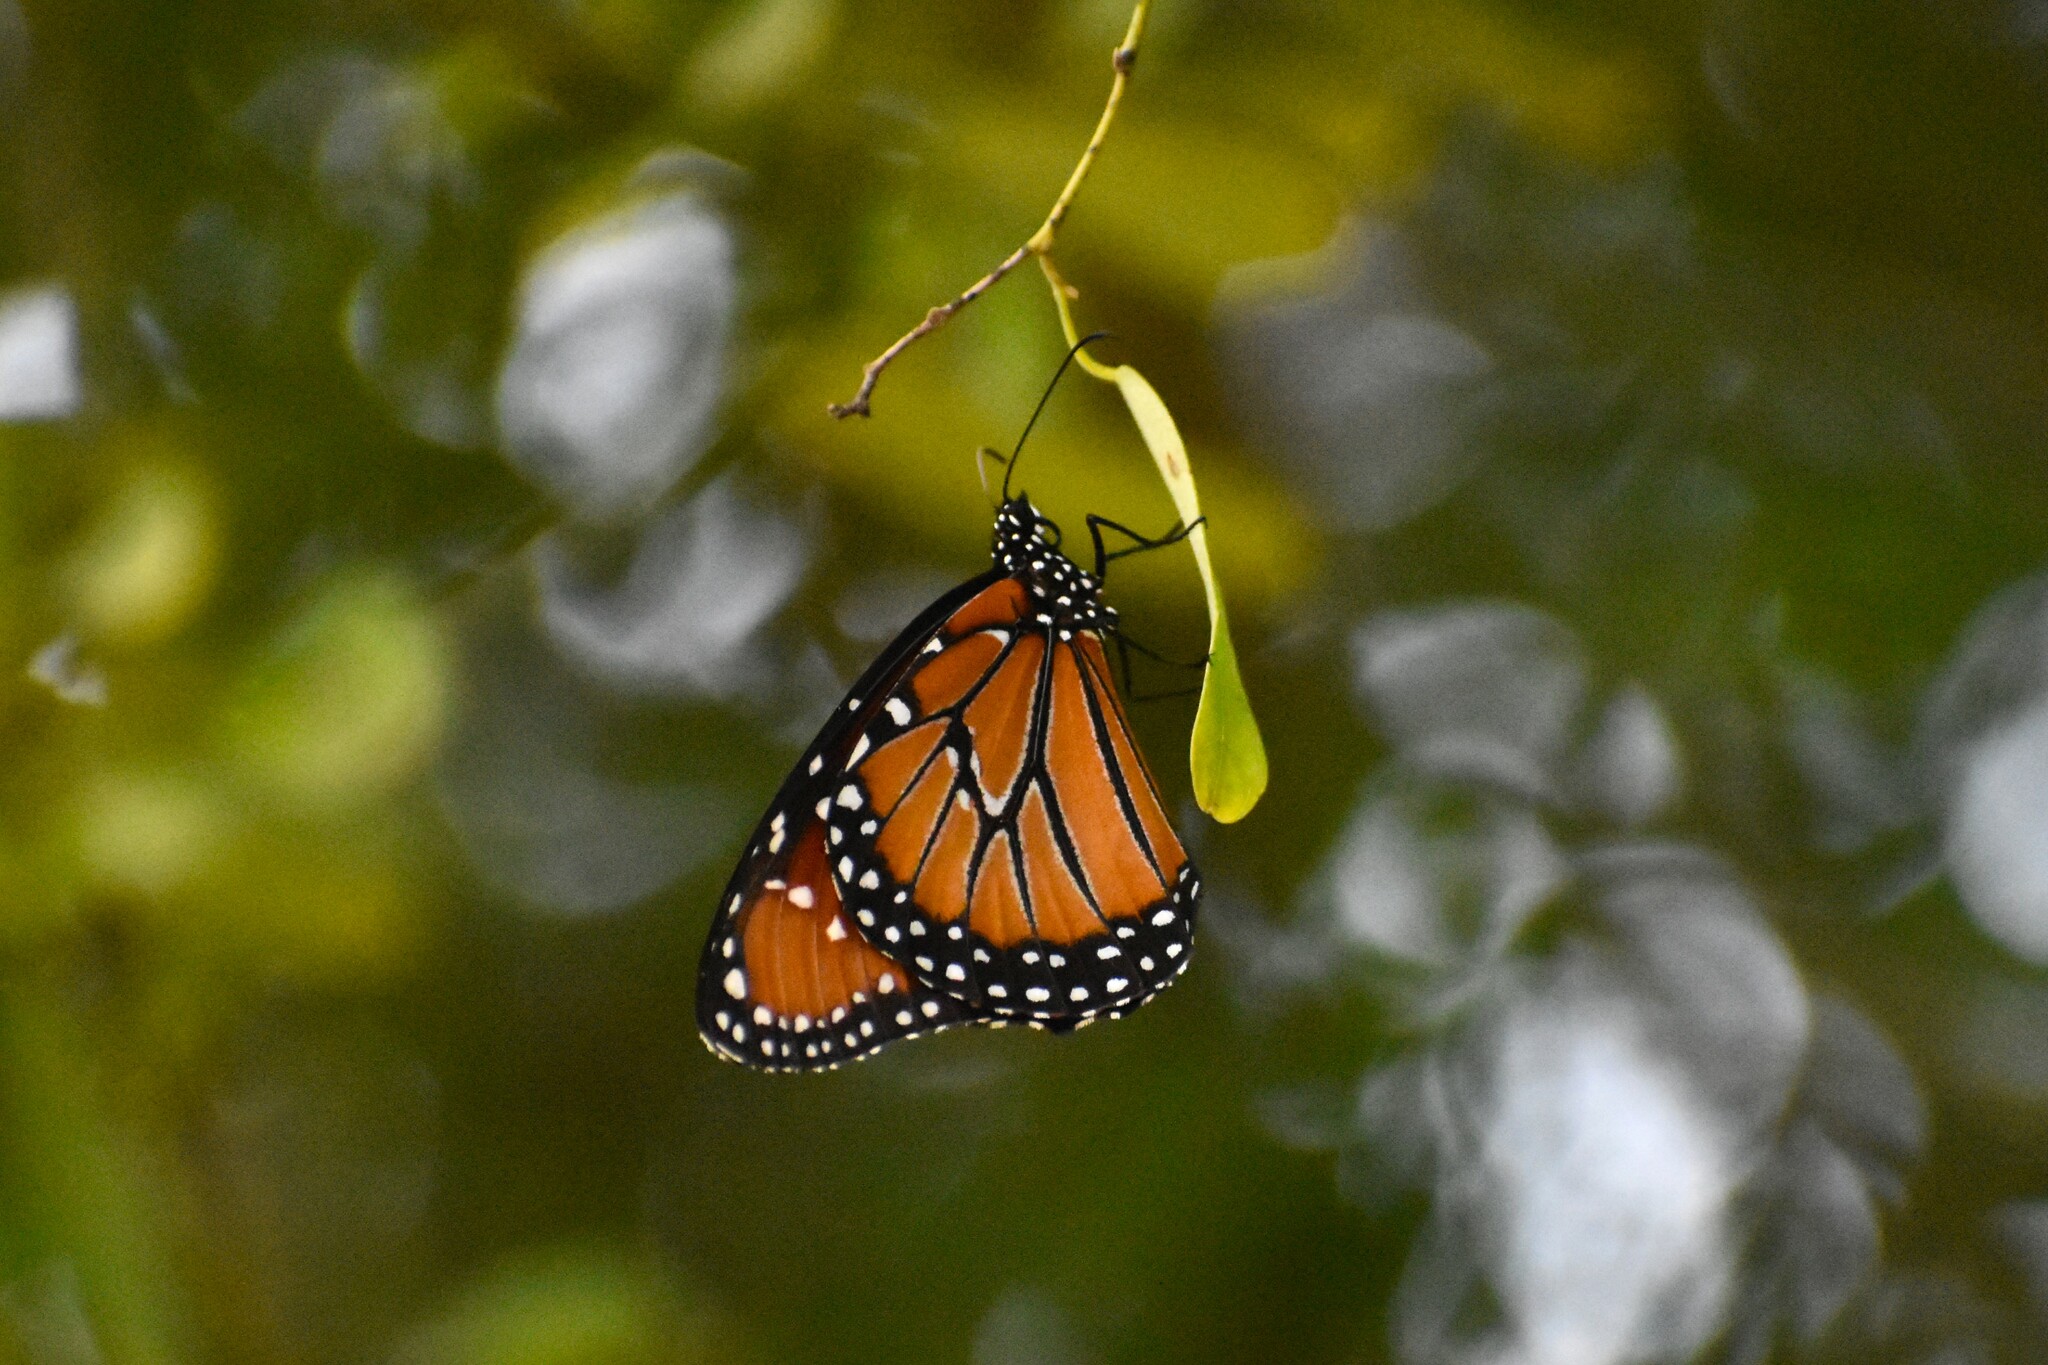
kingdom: Animalia
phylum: Arthropoda
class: Insecta
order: Lepidoptera
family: Nymphalidae
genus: Danaus
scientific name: Danaus gilippus
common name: Queen
